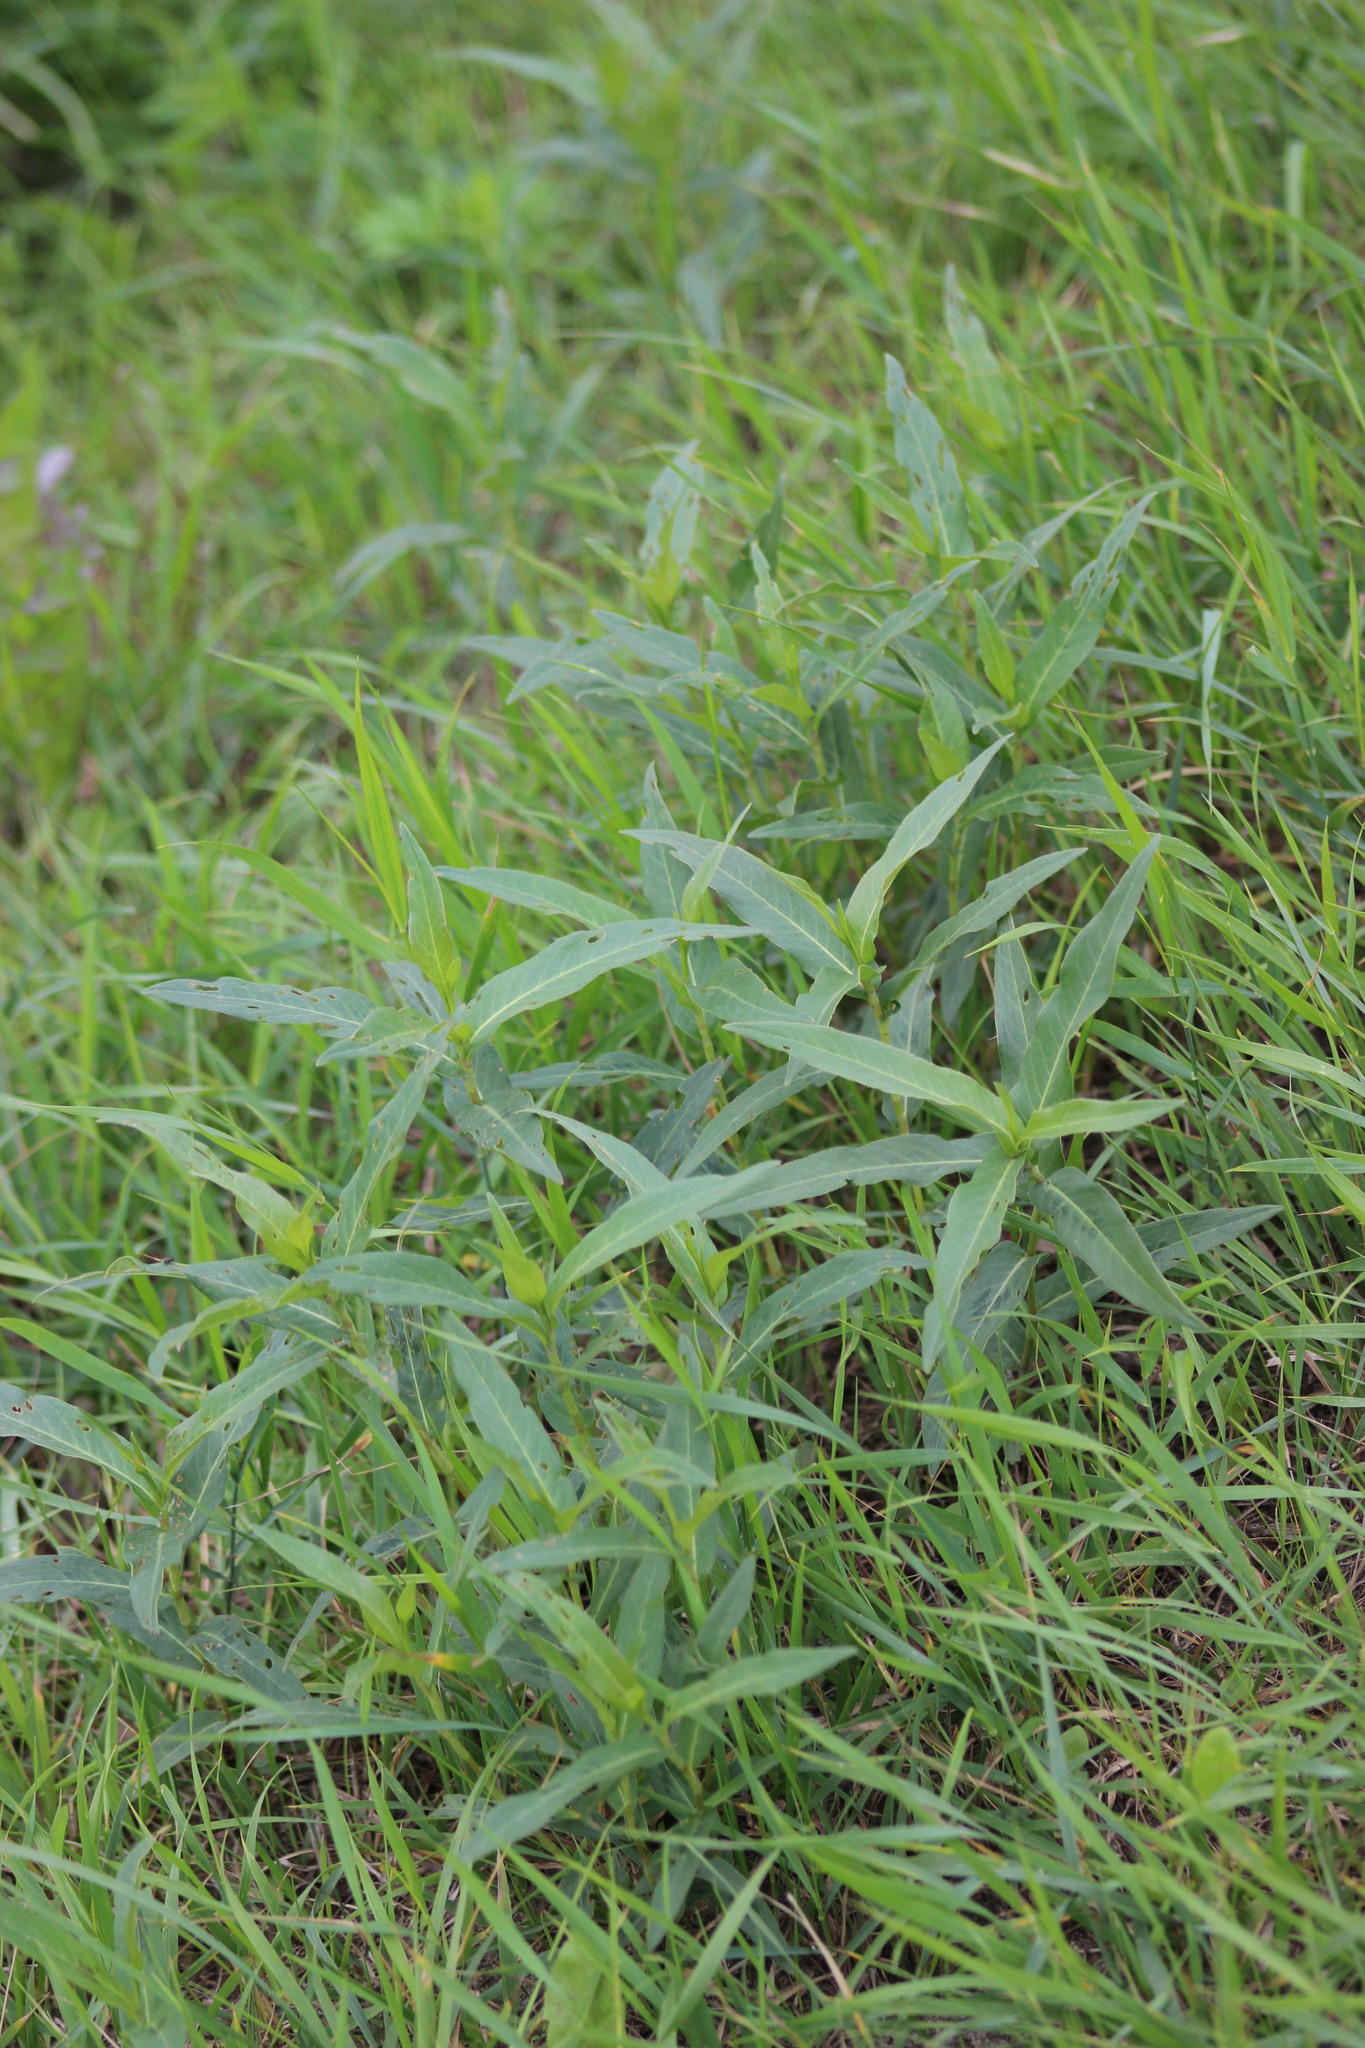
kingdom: Plantae
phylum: Tracheophyta
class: Magnoliopsida
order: Caryophyllales
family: Polygonaceae
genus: Persicaria
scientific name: Persicaria amphibia
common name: Amphibious bistort
